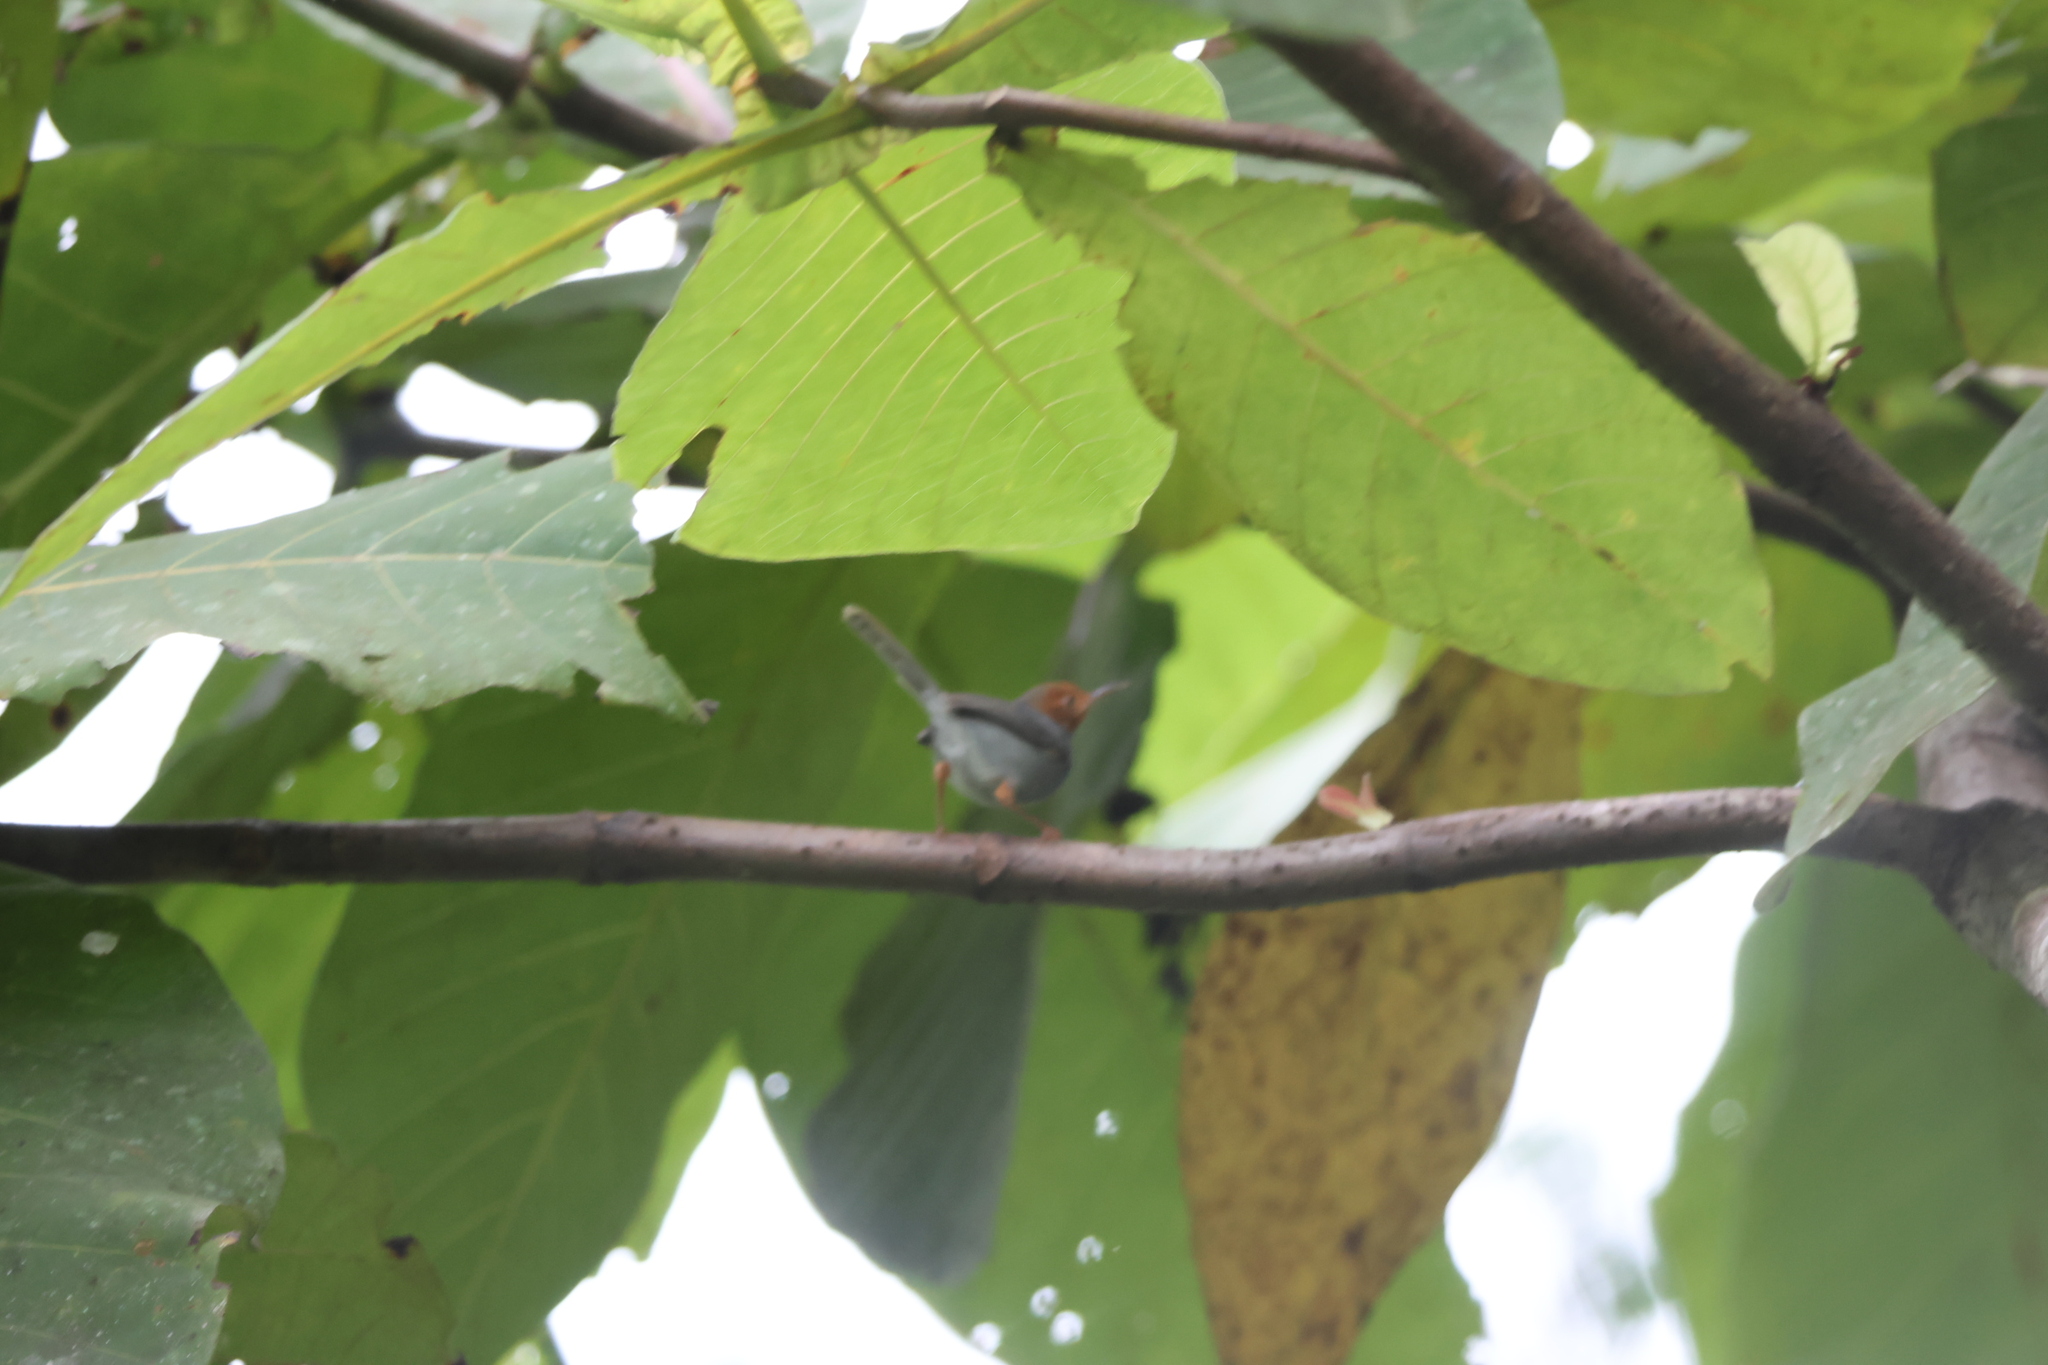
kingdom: Animalia
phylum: Chordata
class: Aves
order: Passeriformes
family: Cisticolidae
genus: Orthotomus
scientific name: Orthotomus ruficeps
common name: Ashy tailorbird
